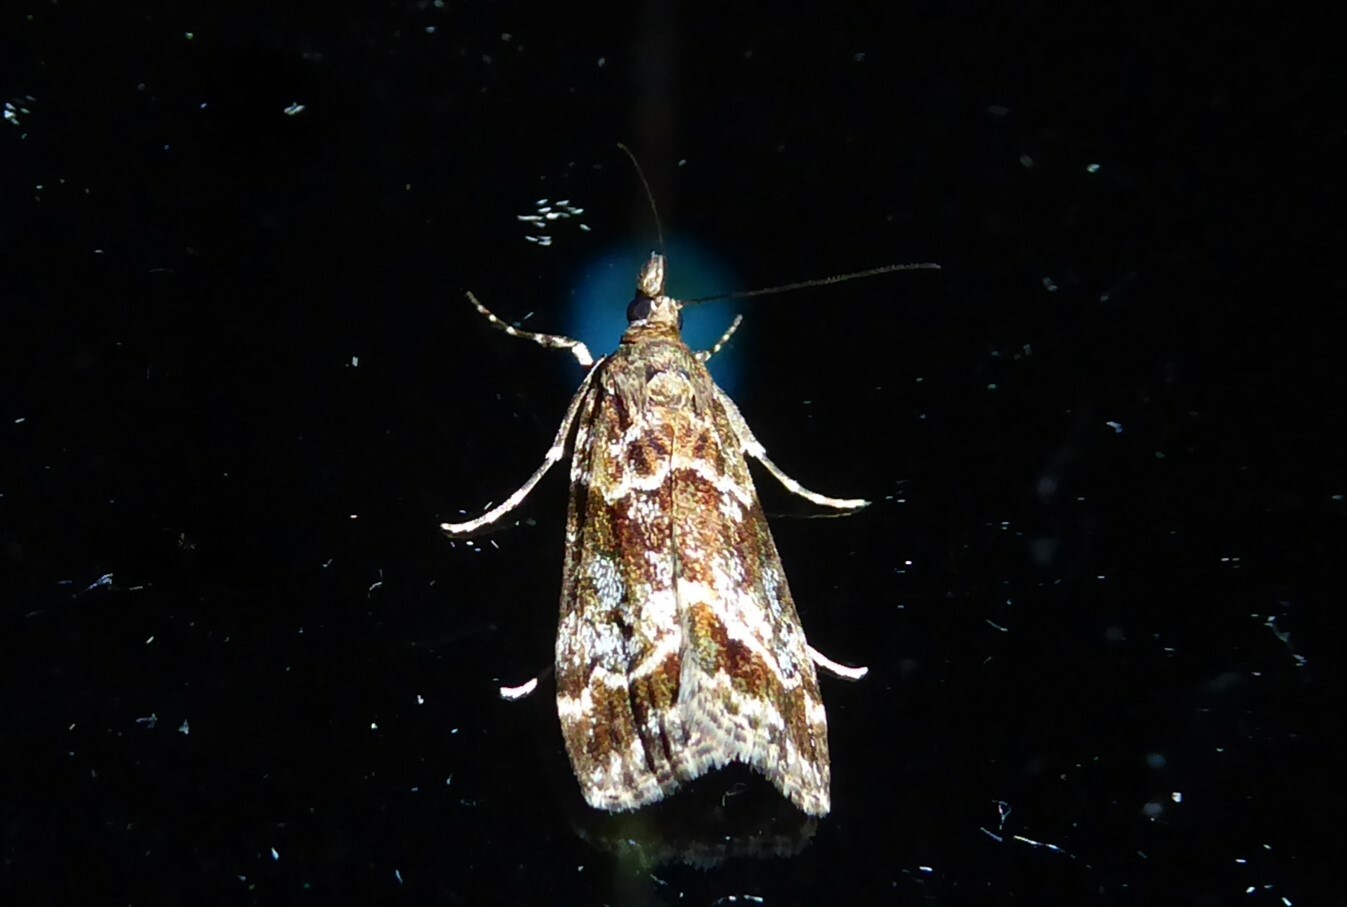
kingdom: Animalia
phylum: Arthropoda
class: Insecta
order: Lepidoptera
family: Crambidae
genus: Eudonia
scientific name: Eudonia legnota
